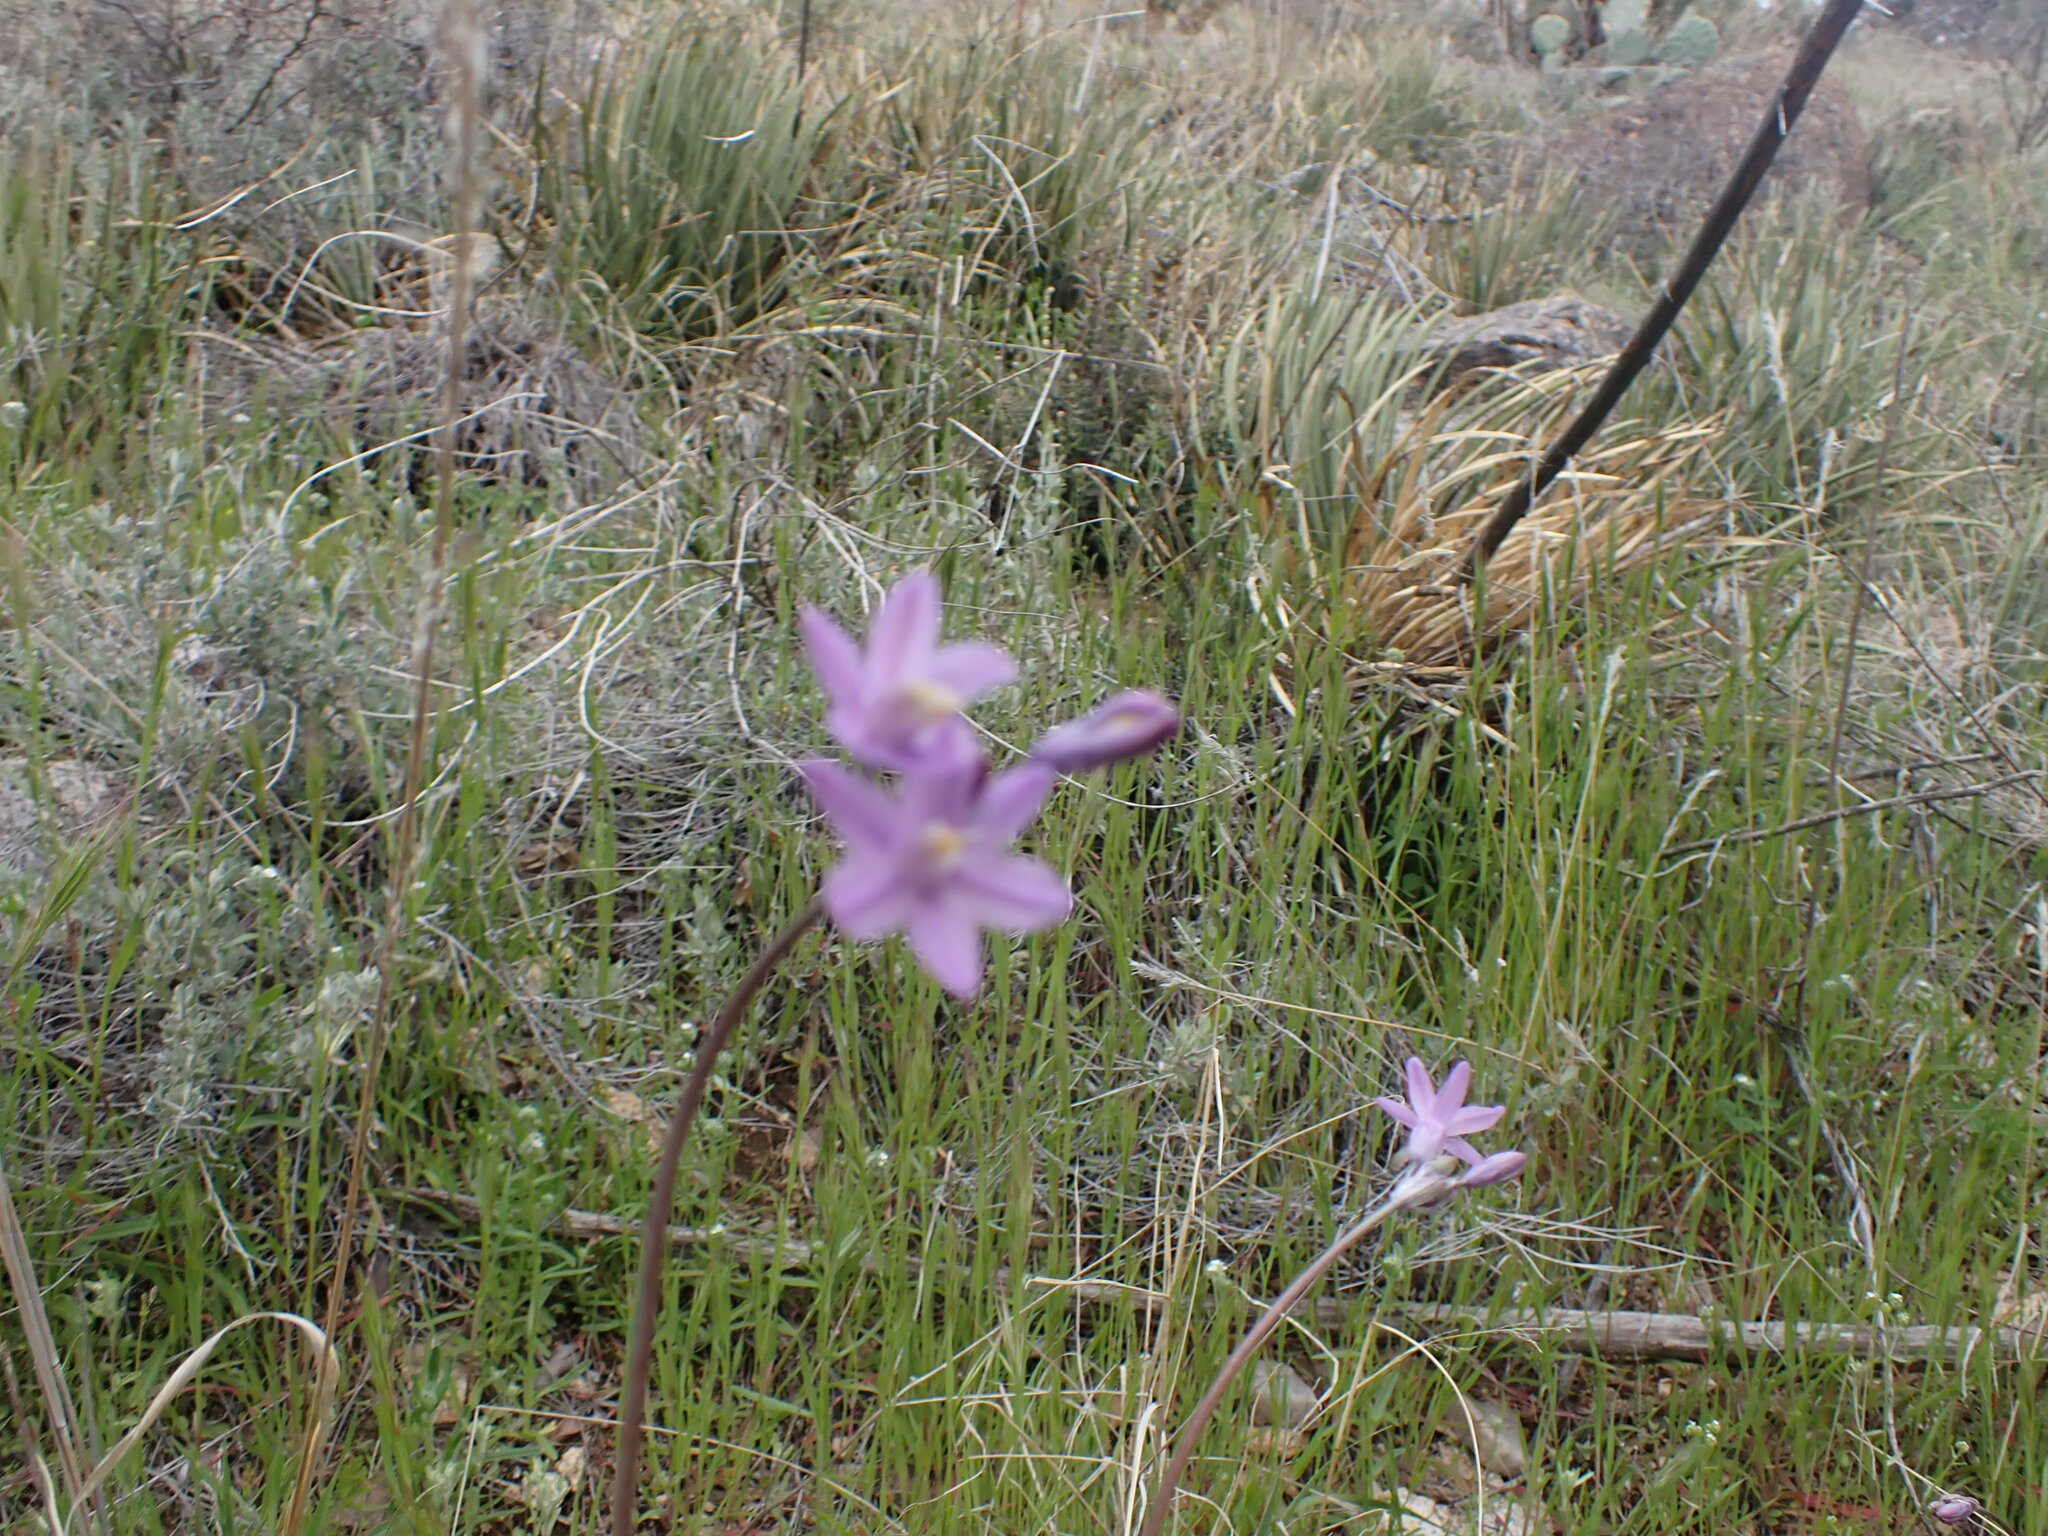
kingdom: Plantae
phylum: Tracheophyta
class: Liliopsida
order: Asparagales
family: Asparagaceae
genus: Dipterostemon
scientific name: Dipterostemon capitatus
